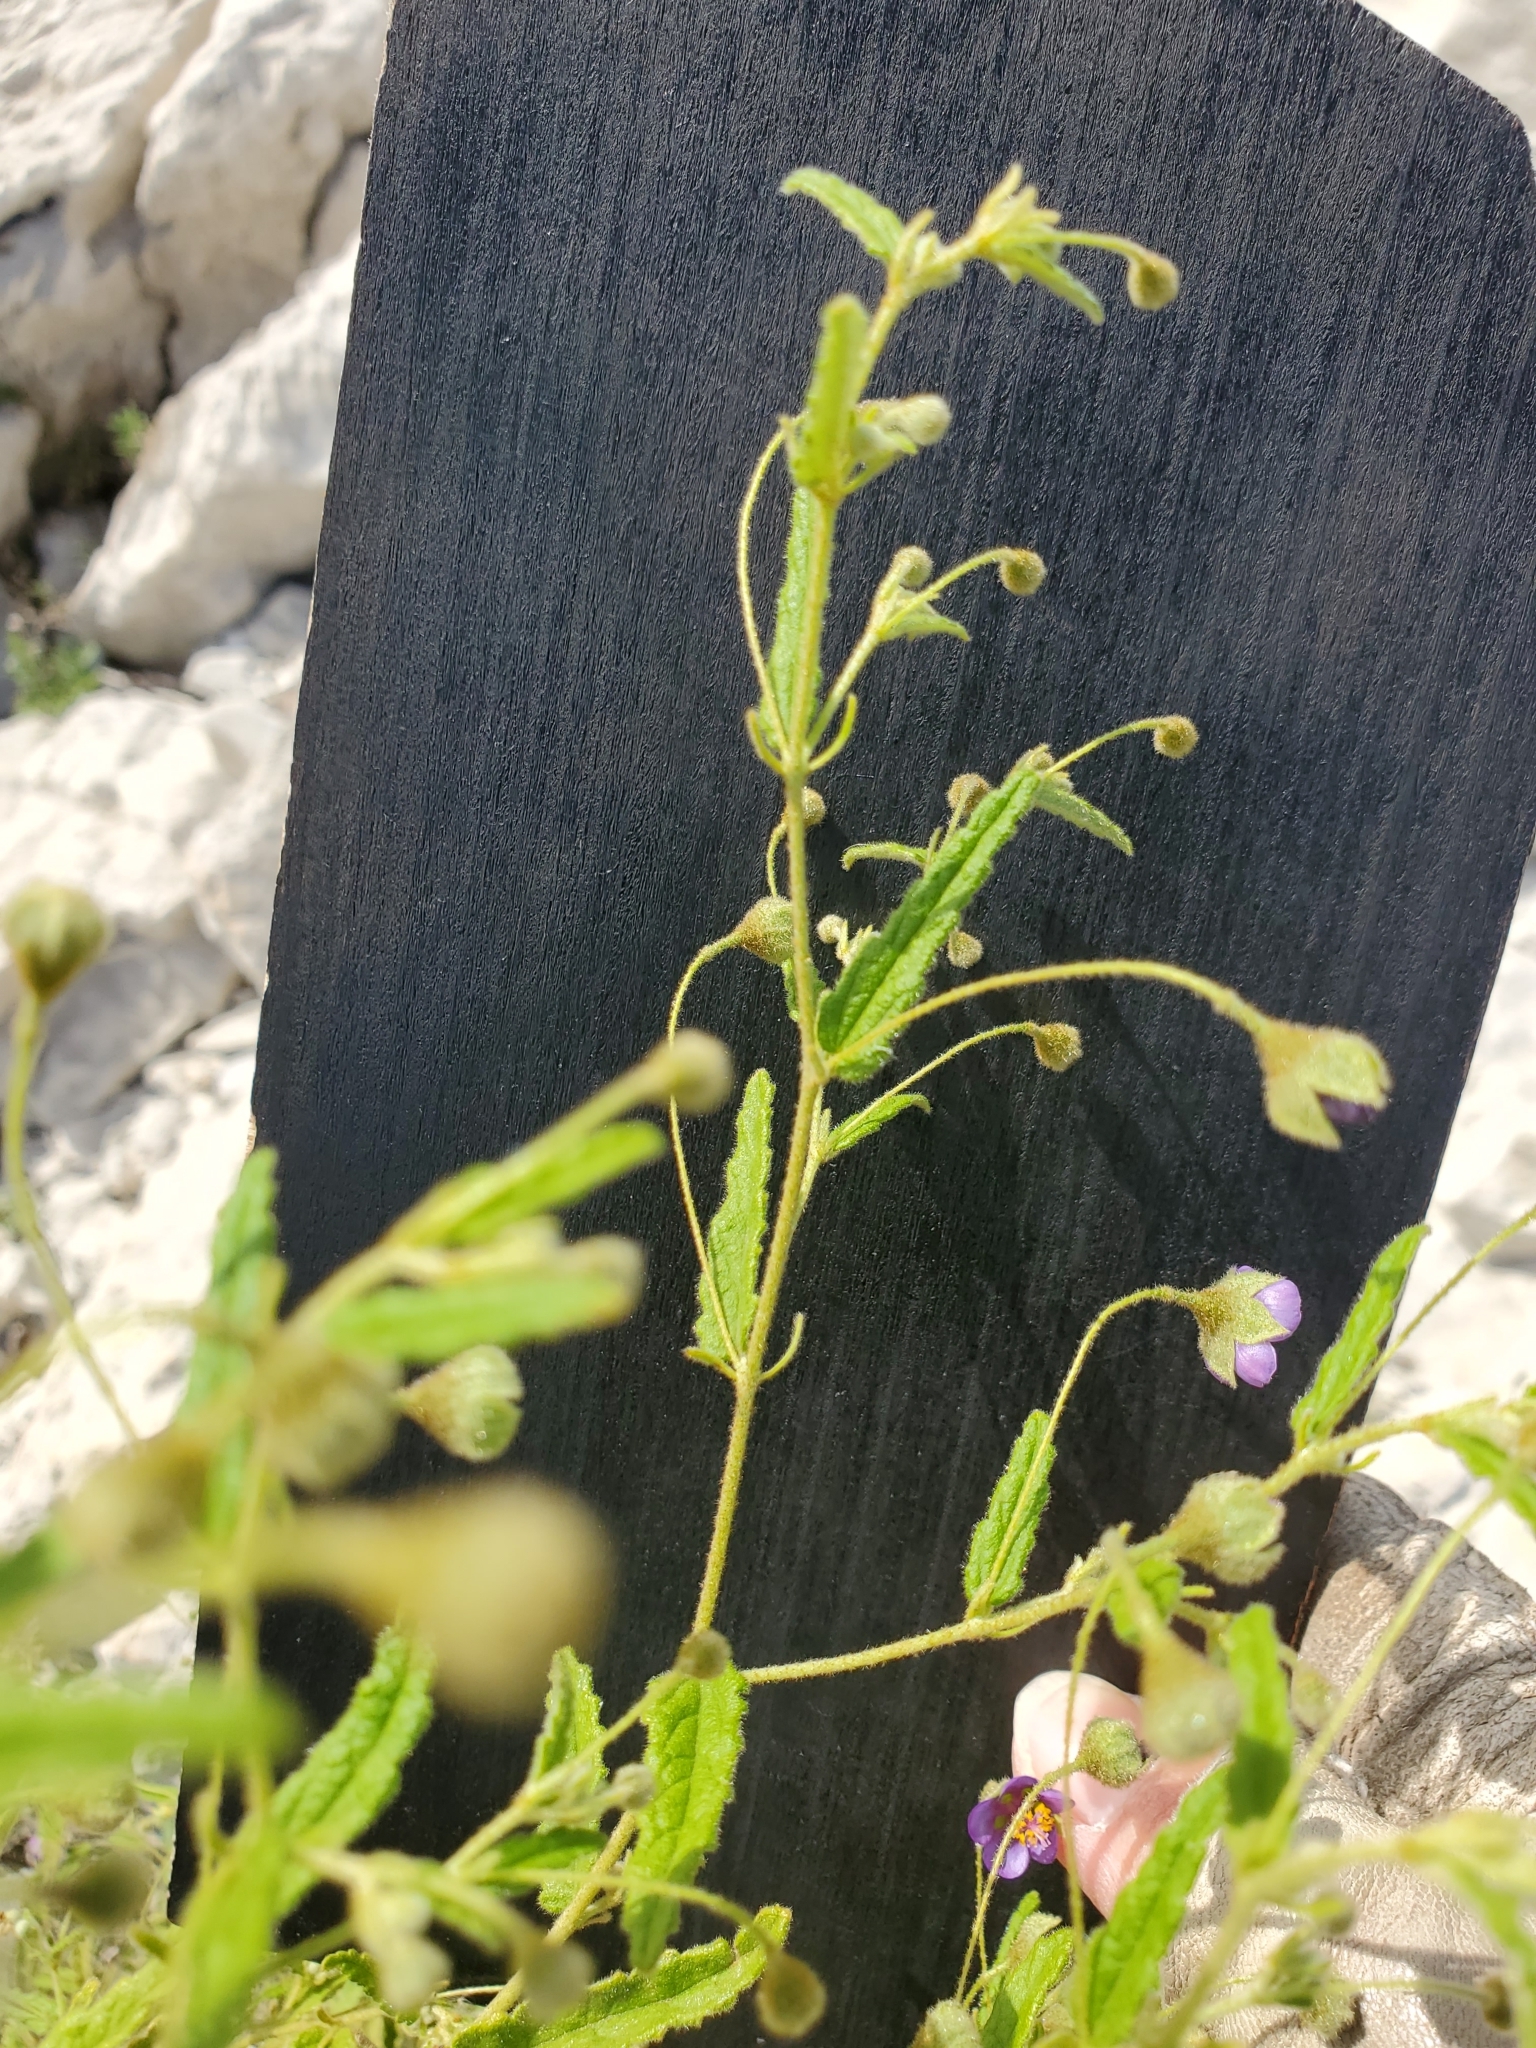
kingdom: Plantae
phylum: Tracheophyta
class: Magnoliopsida
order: Malvales
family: Malvaceae
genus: Meximalva
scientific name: Meximalva filipes
